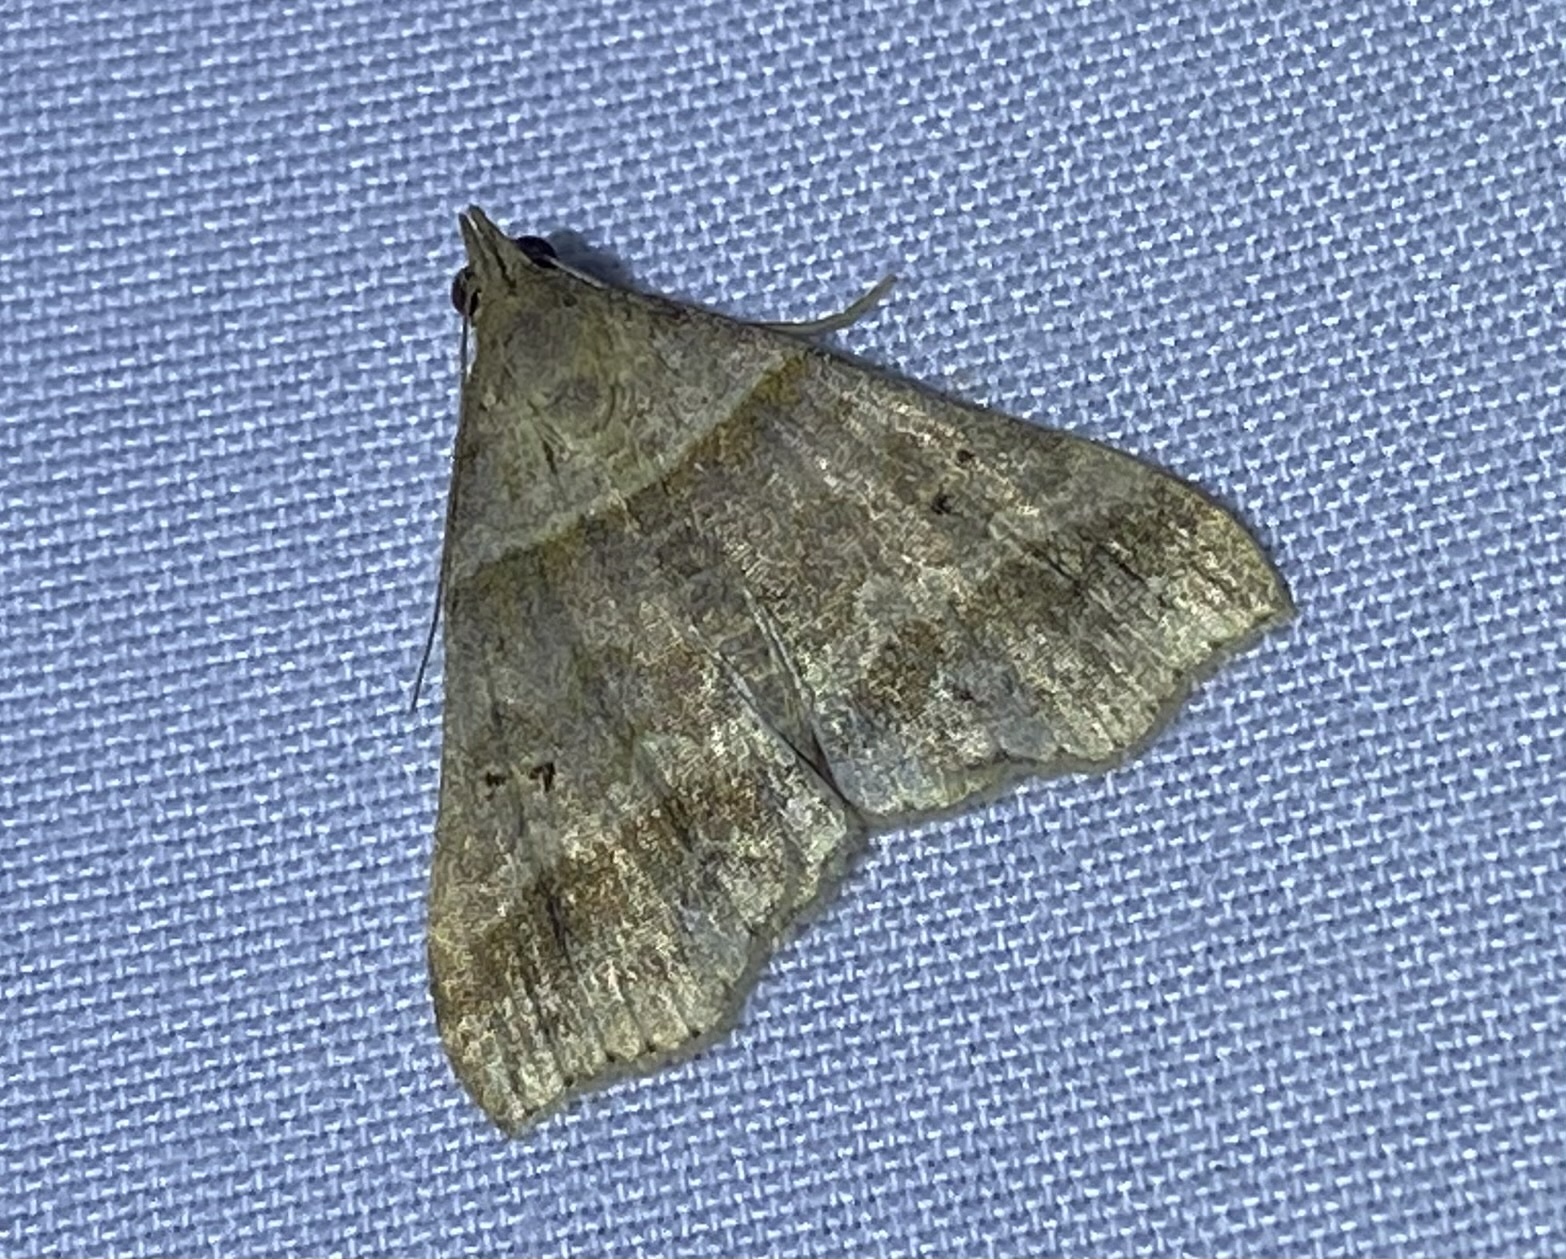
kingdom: Animalia
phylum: Arthropoda
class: Insecta
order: Lepidoptera
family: Erebidae
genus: Phaeolita
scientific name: Phaeolita pyramusalis
